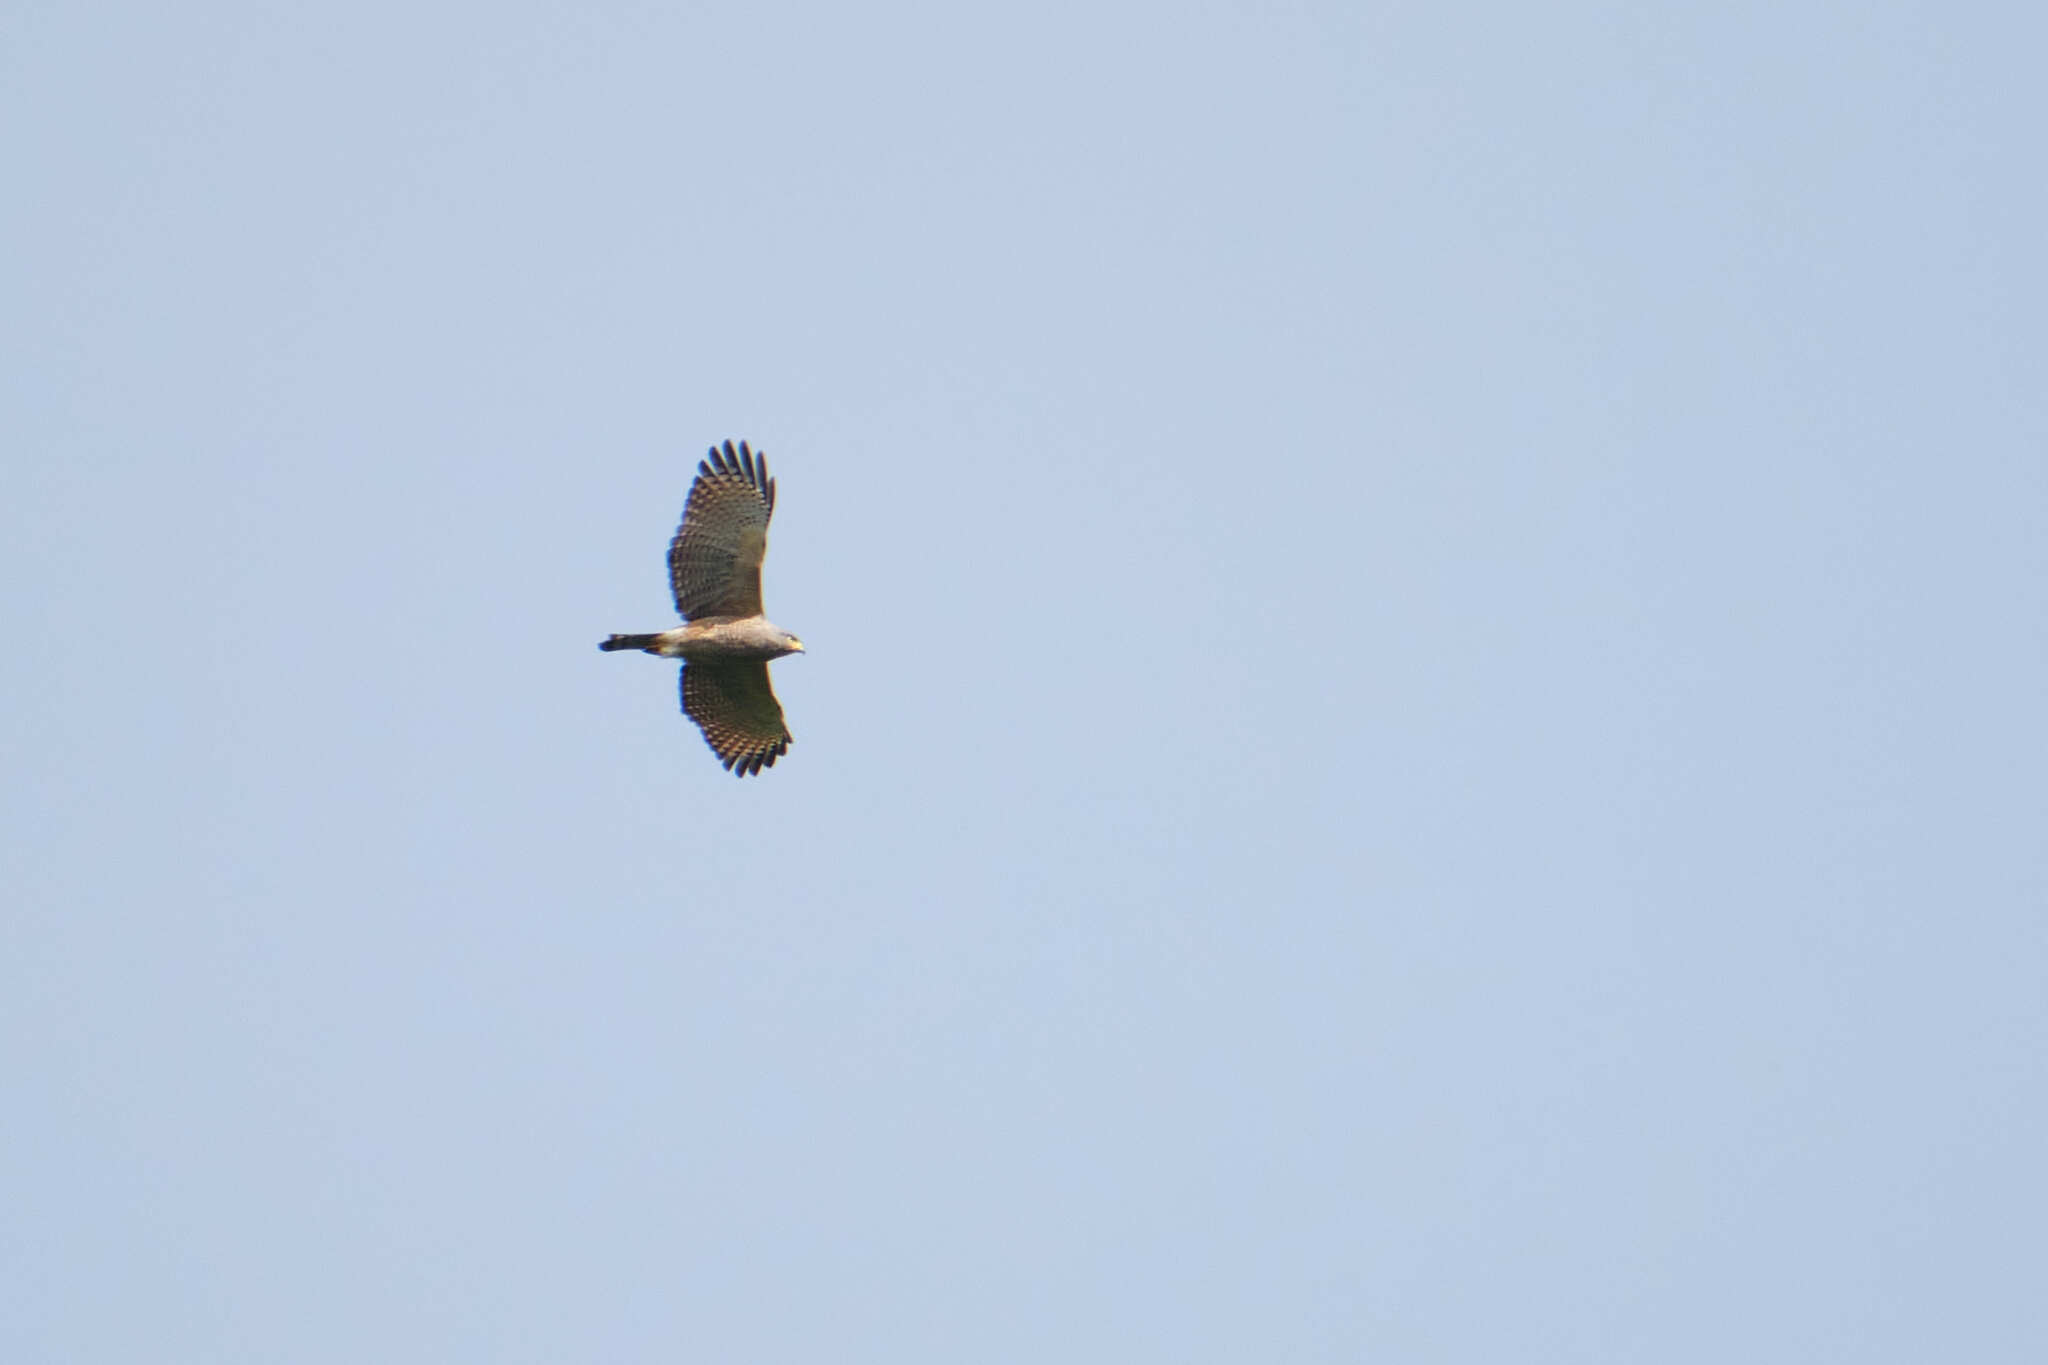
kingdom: Animalia
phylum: Chordata
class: Aves
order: Accipitriformes
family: Accipitridae
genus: Rupornis
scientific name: Rupornis magnirostris
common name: Roadside hawk
